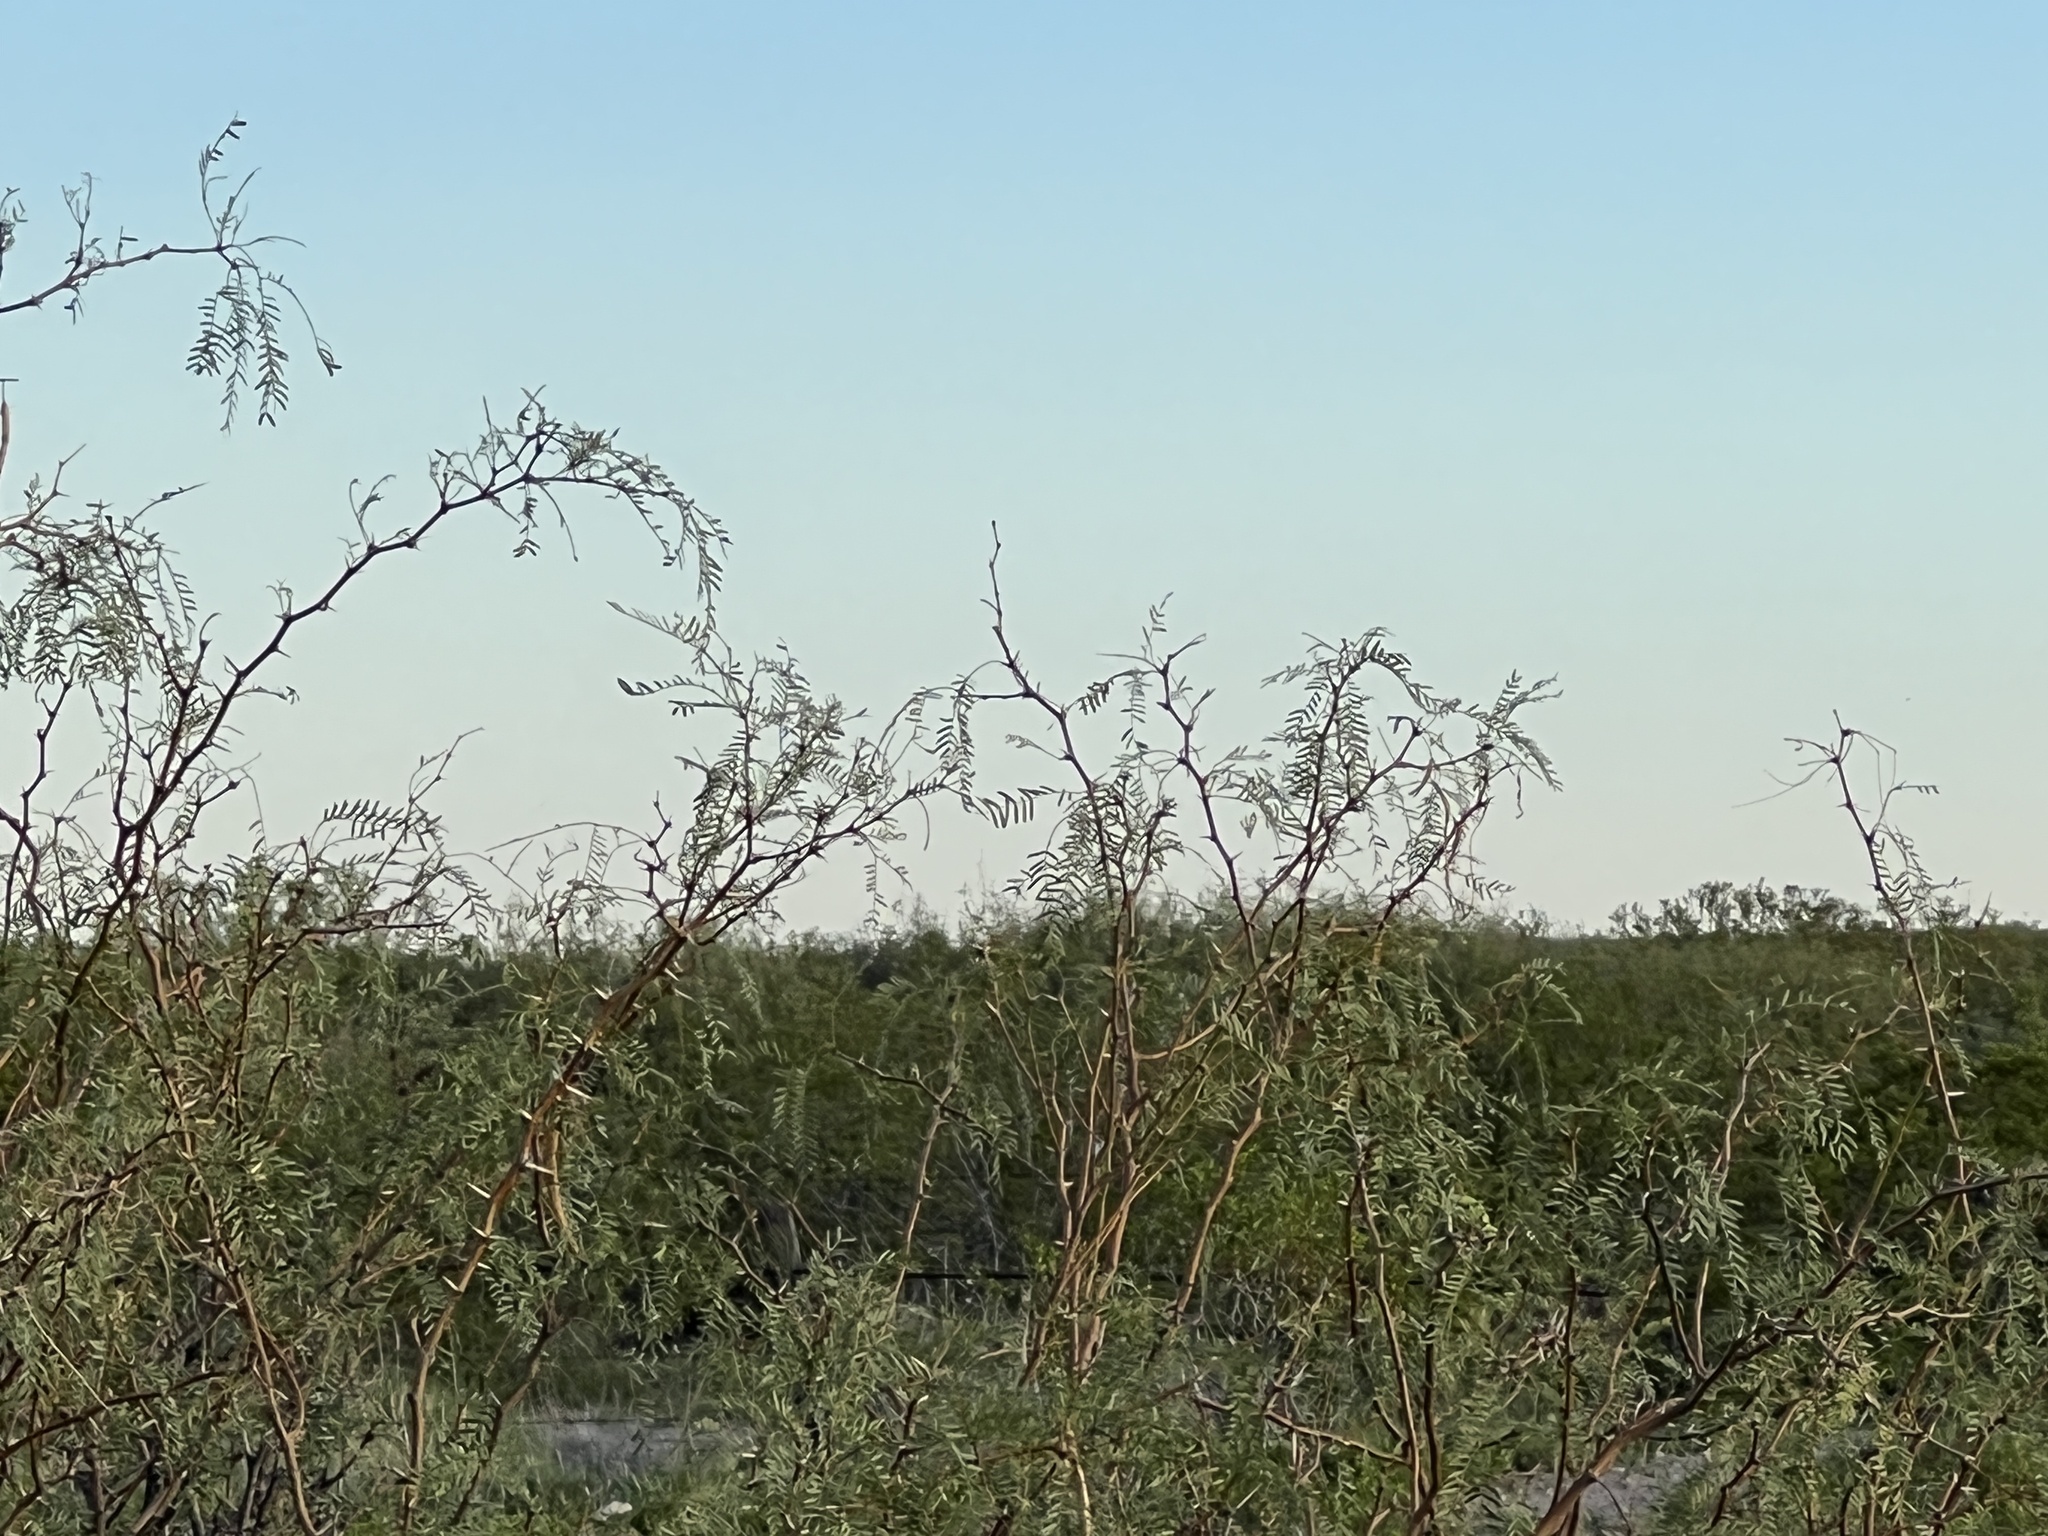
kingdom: Plantae
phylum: Tracheophyta
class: Magnoliopsida
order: Fabales
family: Fabaceae
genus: Prosopis
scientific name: Prosopis glandulosa
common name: Honey mesquite
